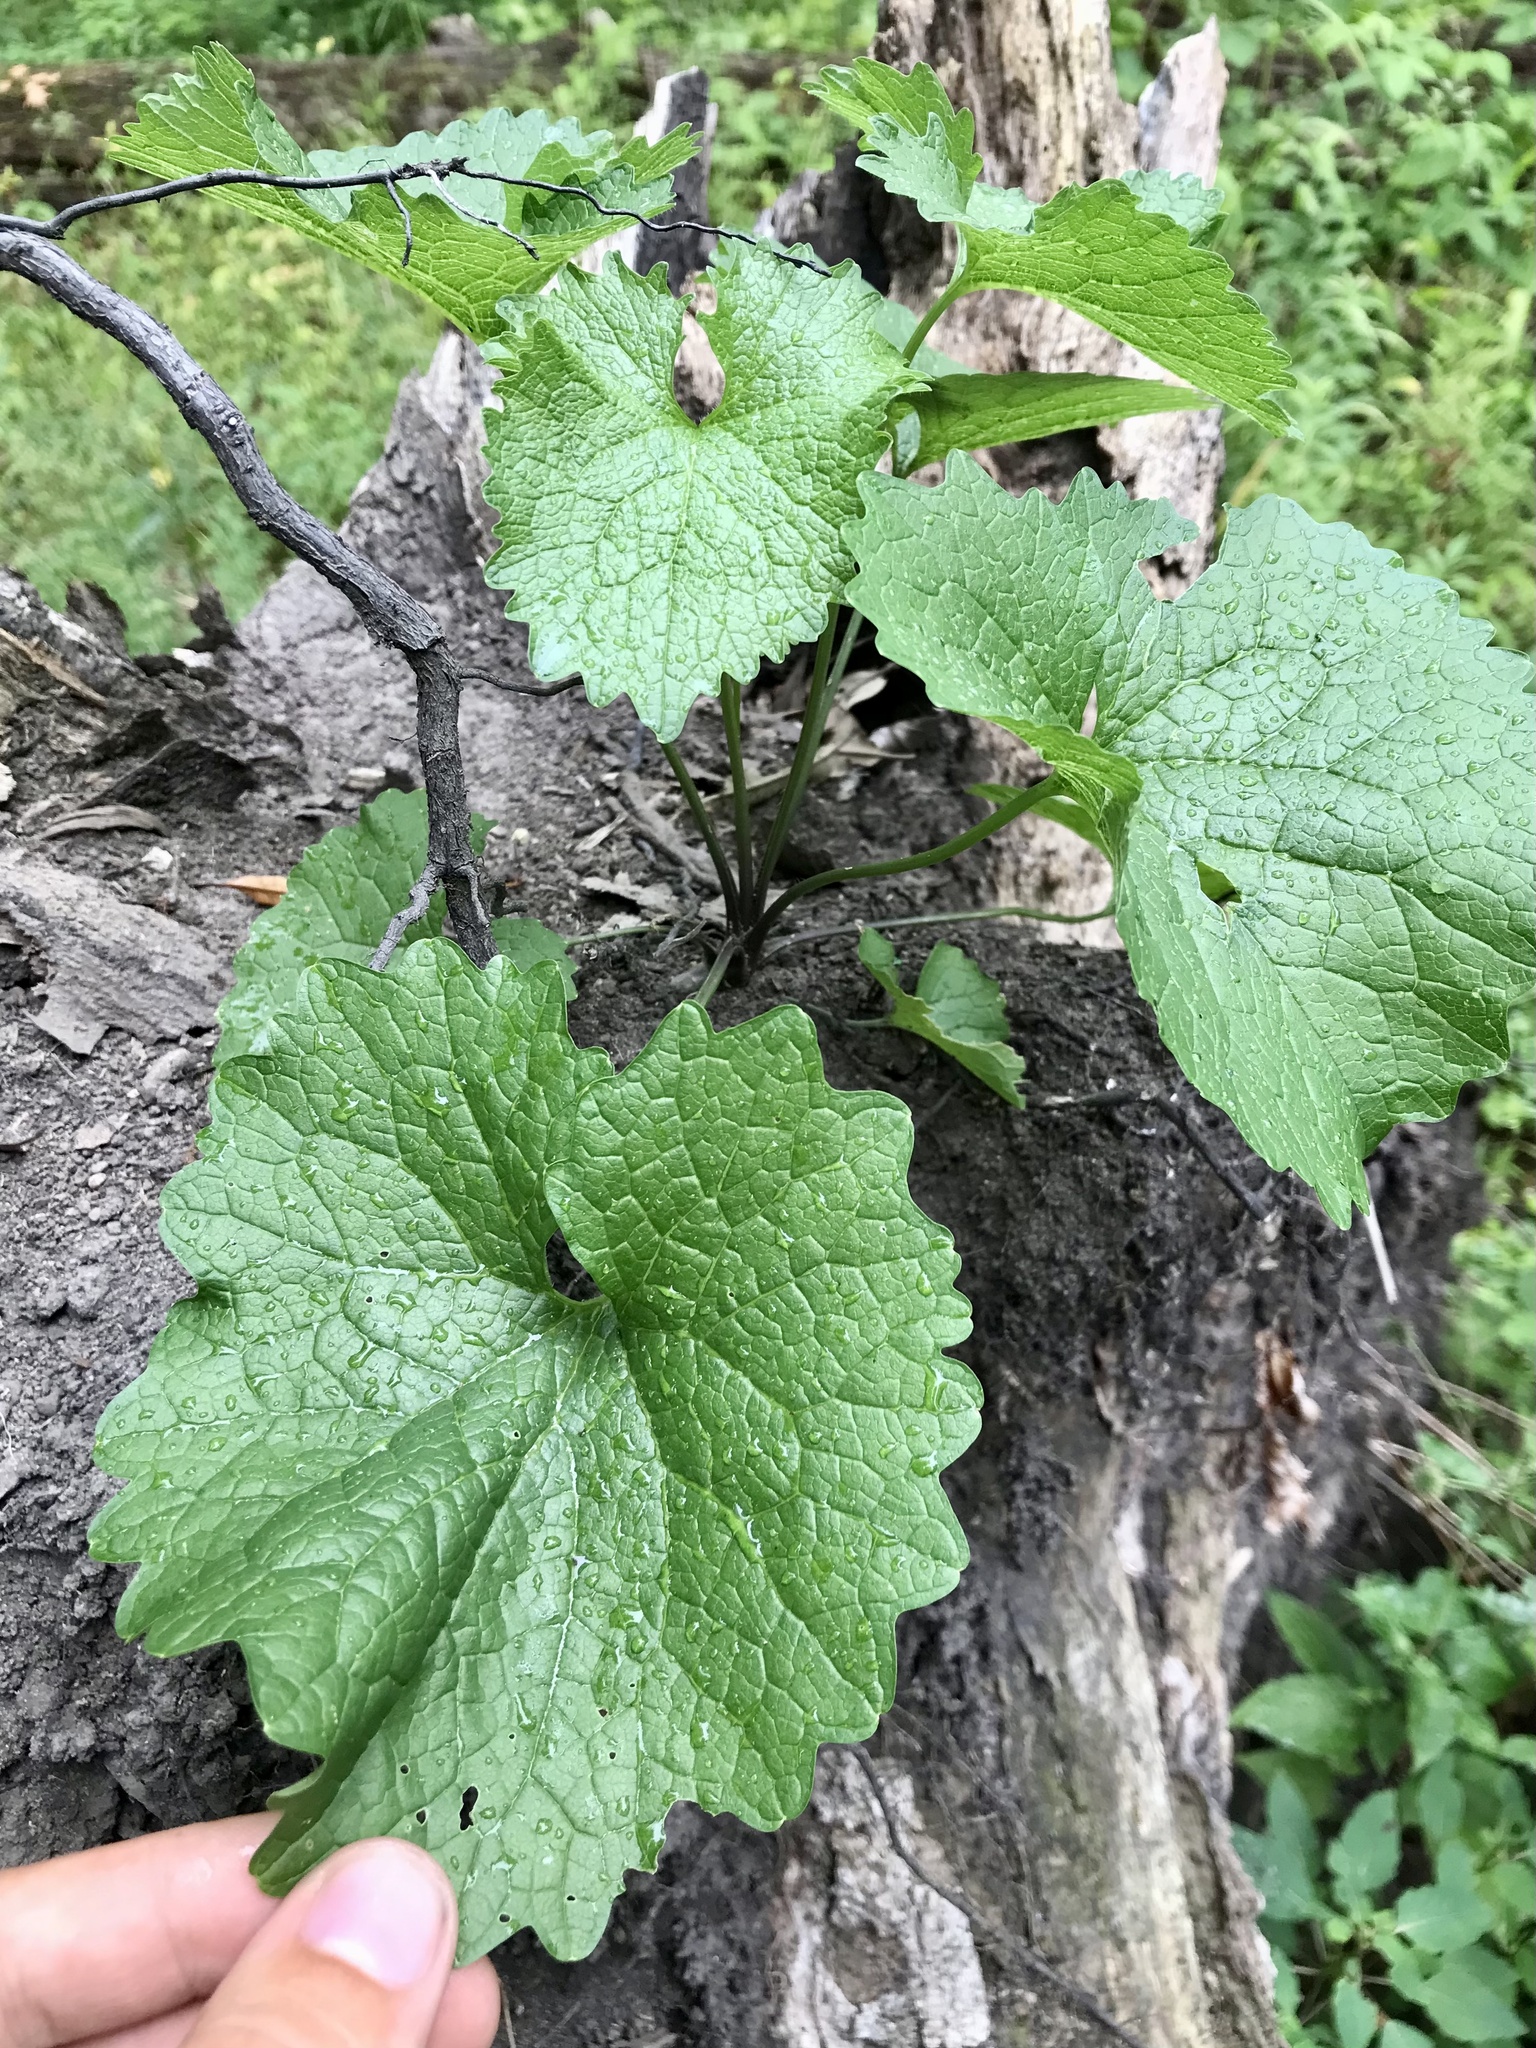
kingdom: Plantae
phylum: Tracheophyta
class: Magnoliopsida
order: Brassicales
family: Brassicaceae
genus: Alliaria
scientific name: Alliaria petiolata
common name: Garlic mustard
